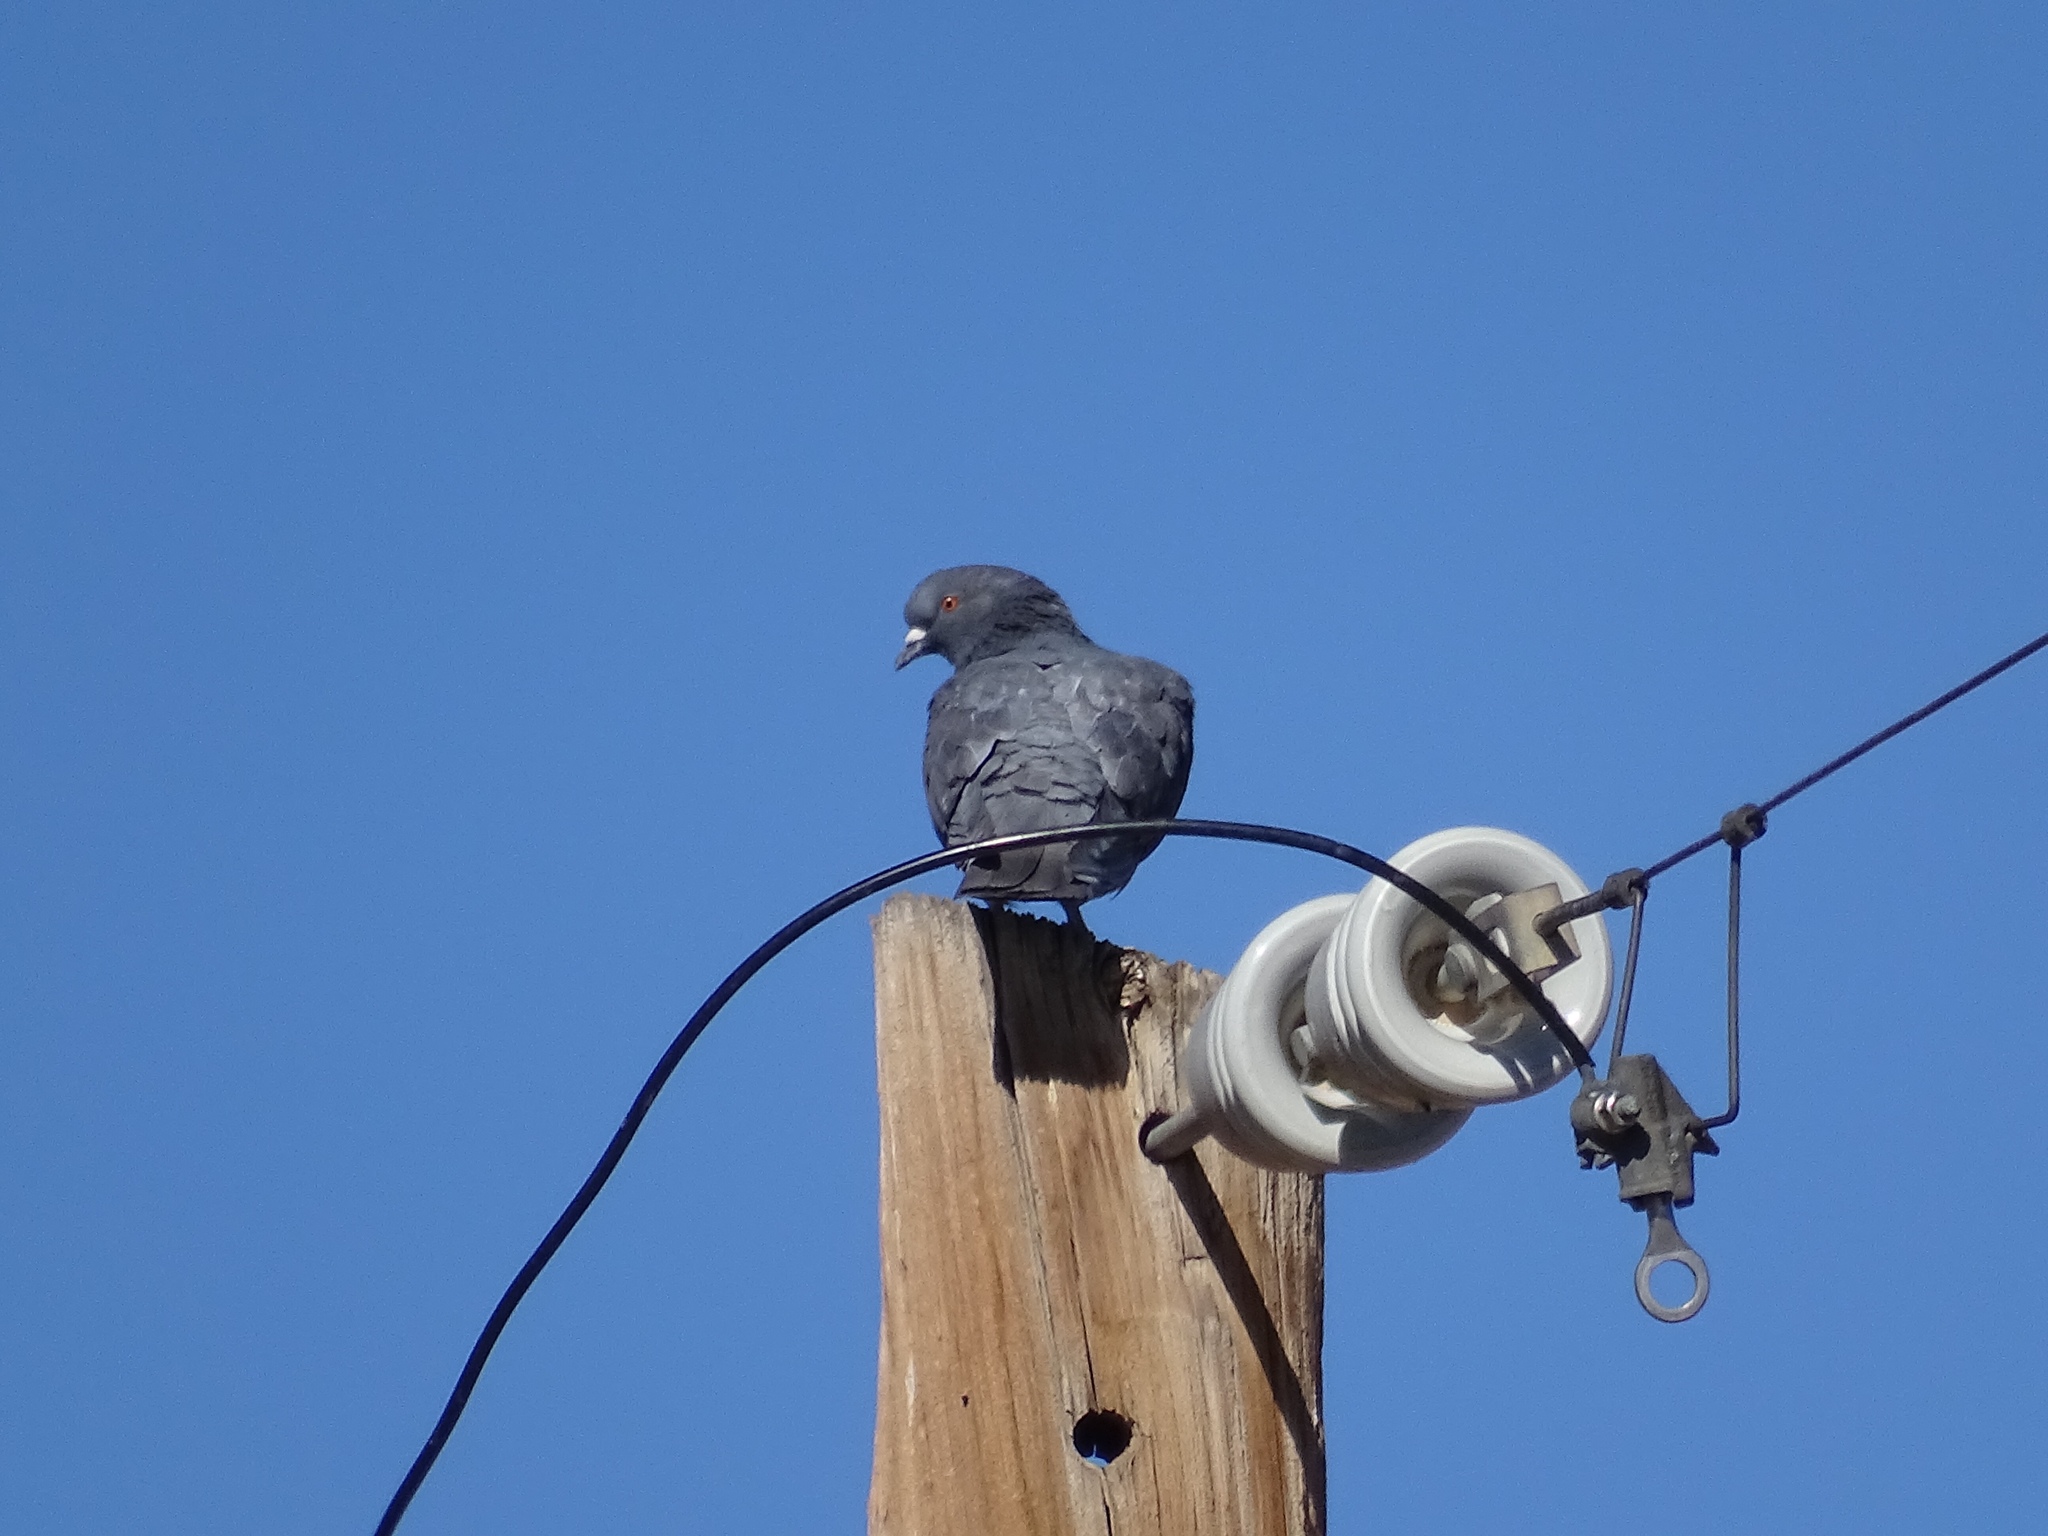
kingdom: Animalia
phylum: Chordata
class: Aves
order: Columbiformes
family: Columbidae
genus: Columba
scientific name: Columba livia
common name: Rock pigeon
